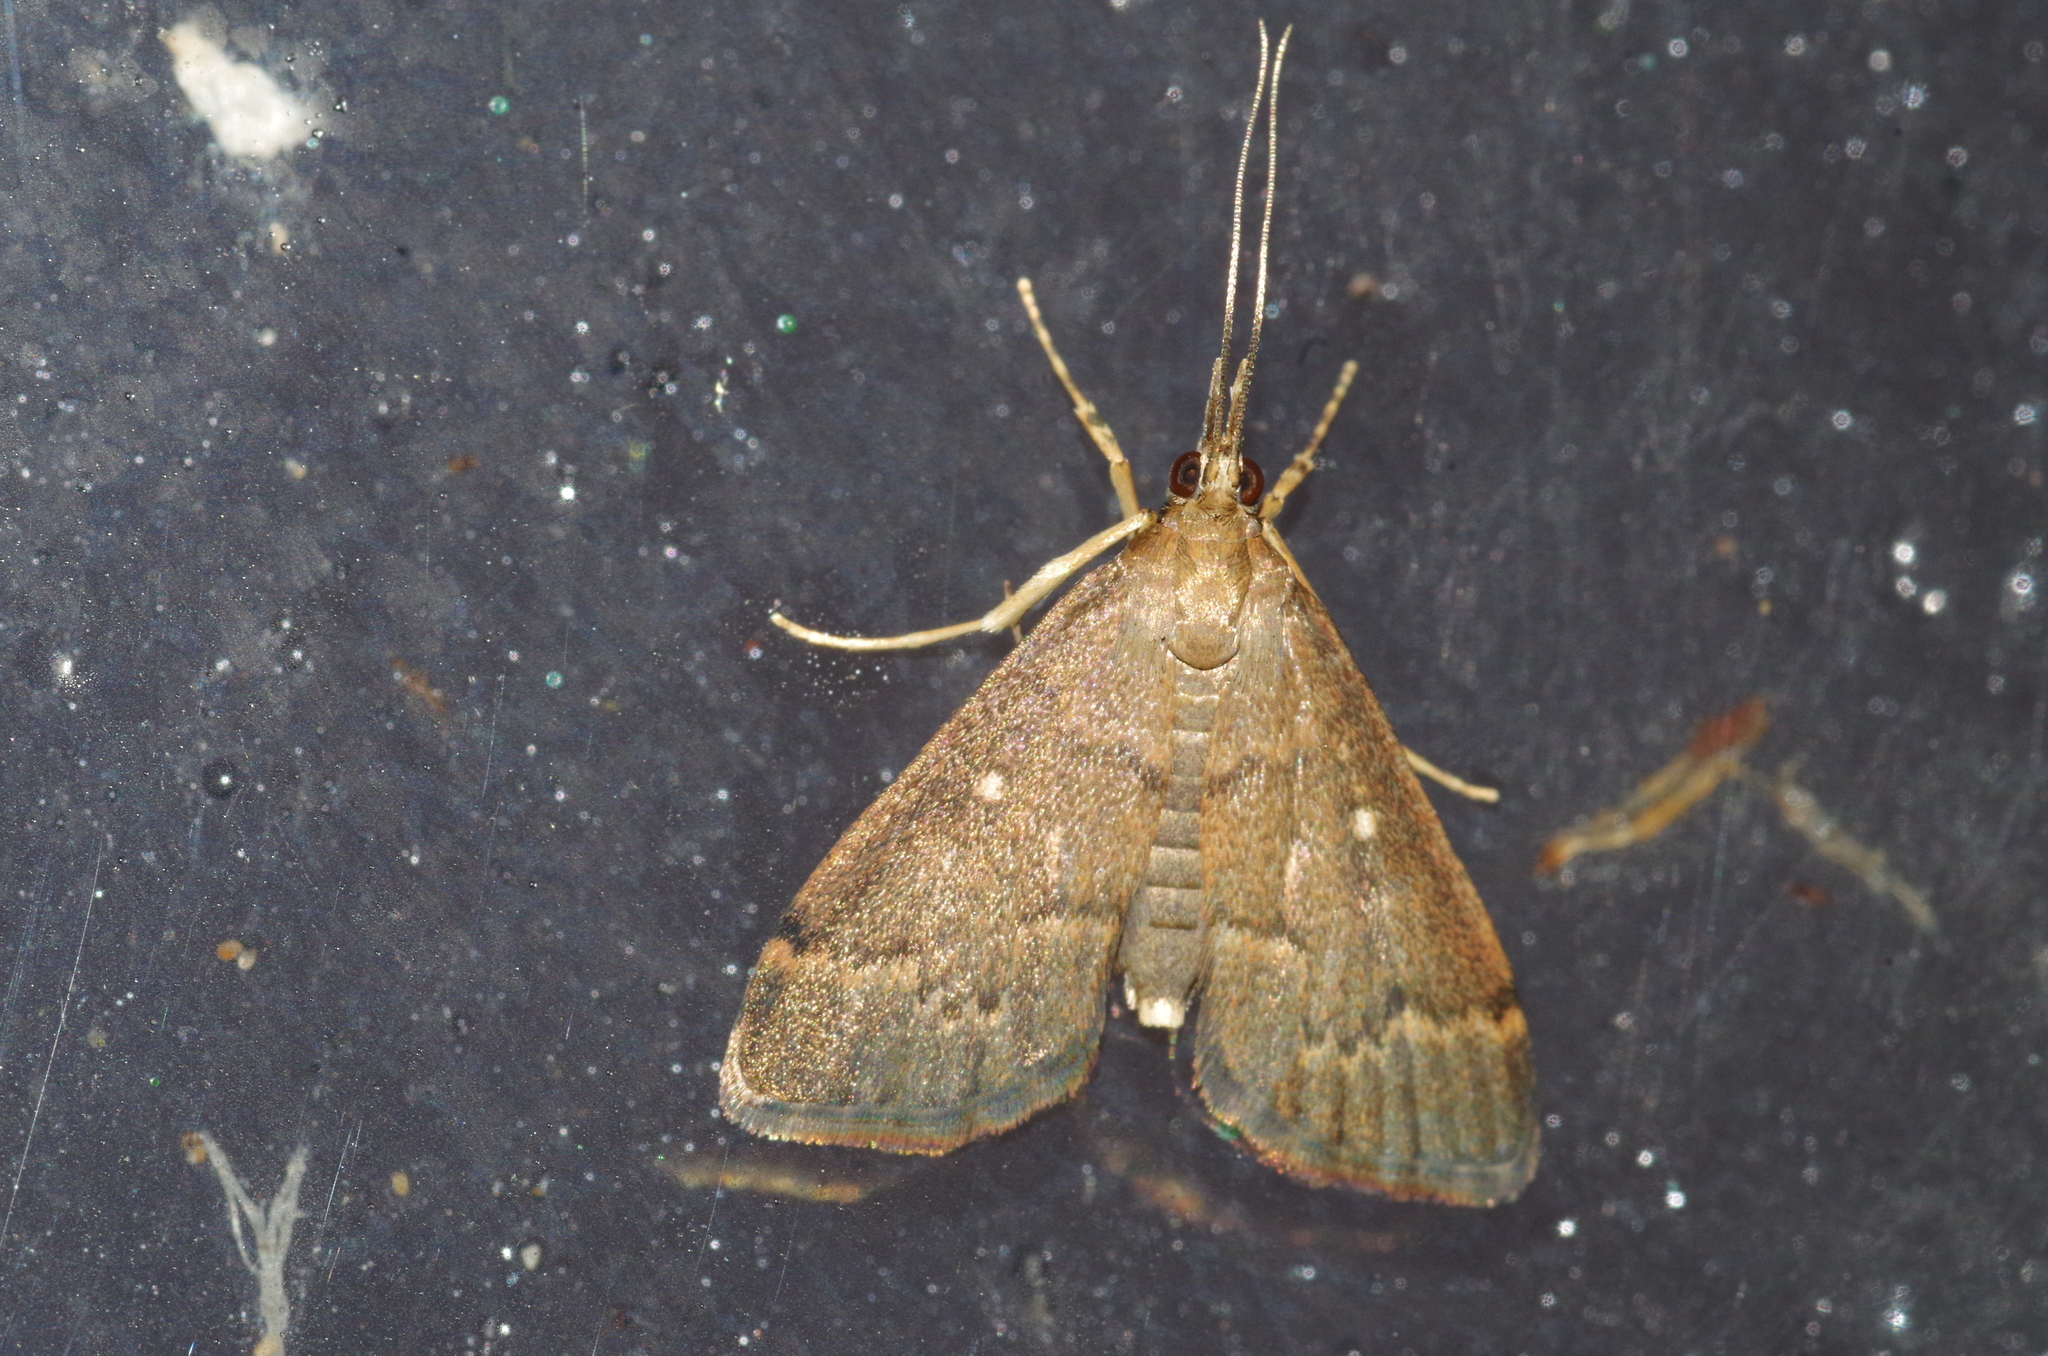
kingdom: Animalia
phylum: Arthropoda
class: Insecta
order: Lepidoptera
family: Crambidae
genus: Camptomastix
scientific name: Camptomastix hisbonalis
